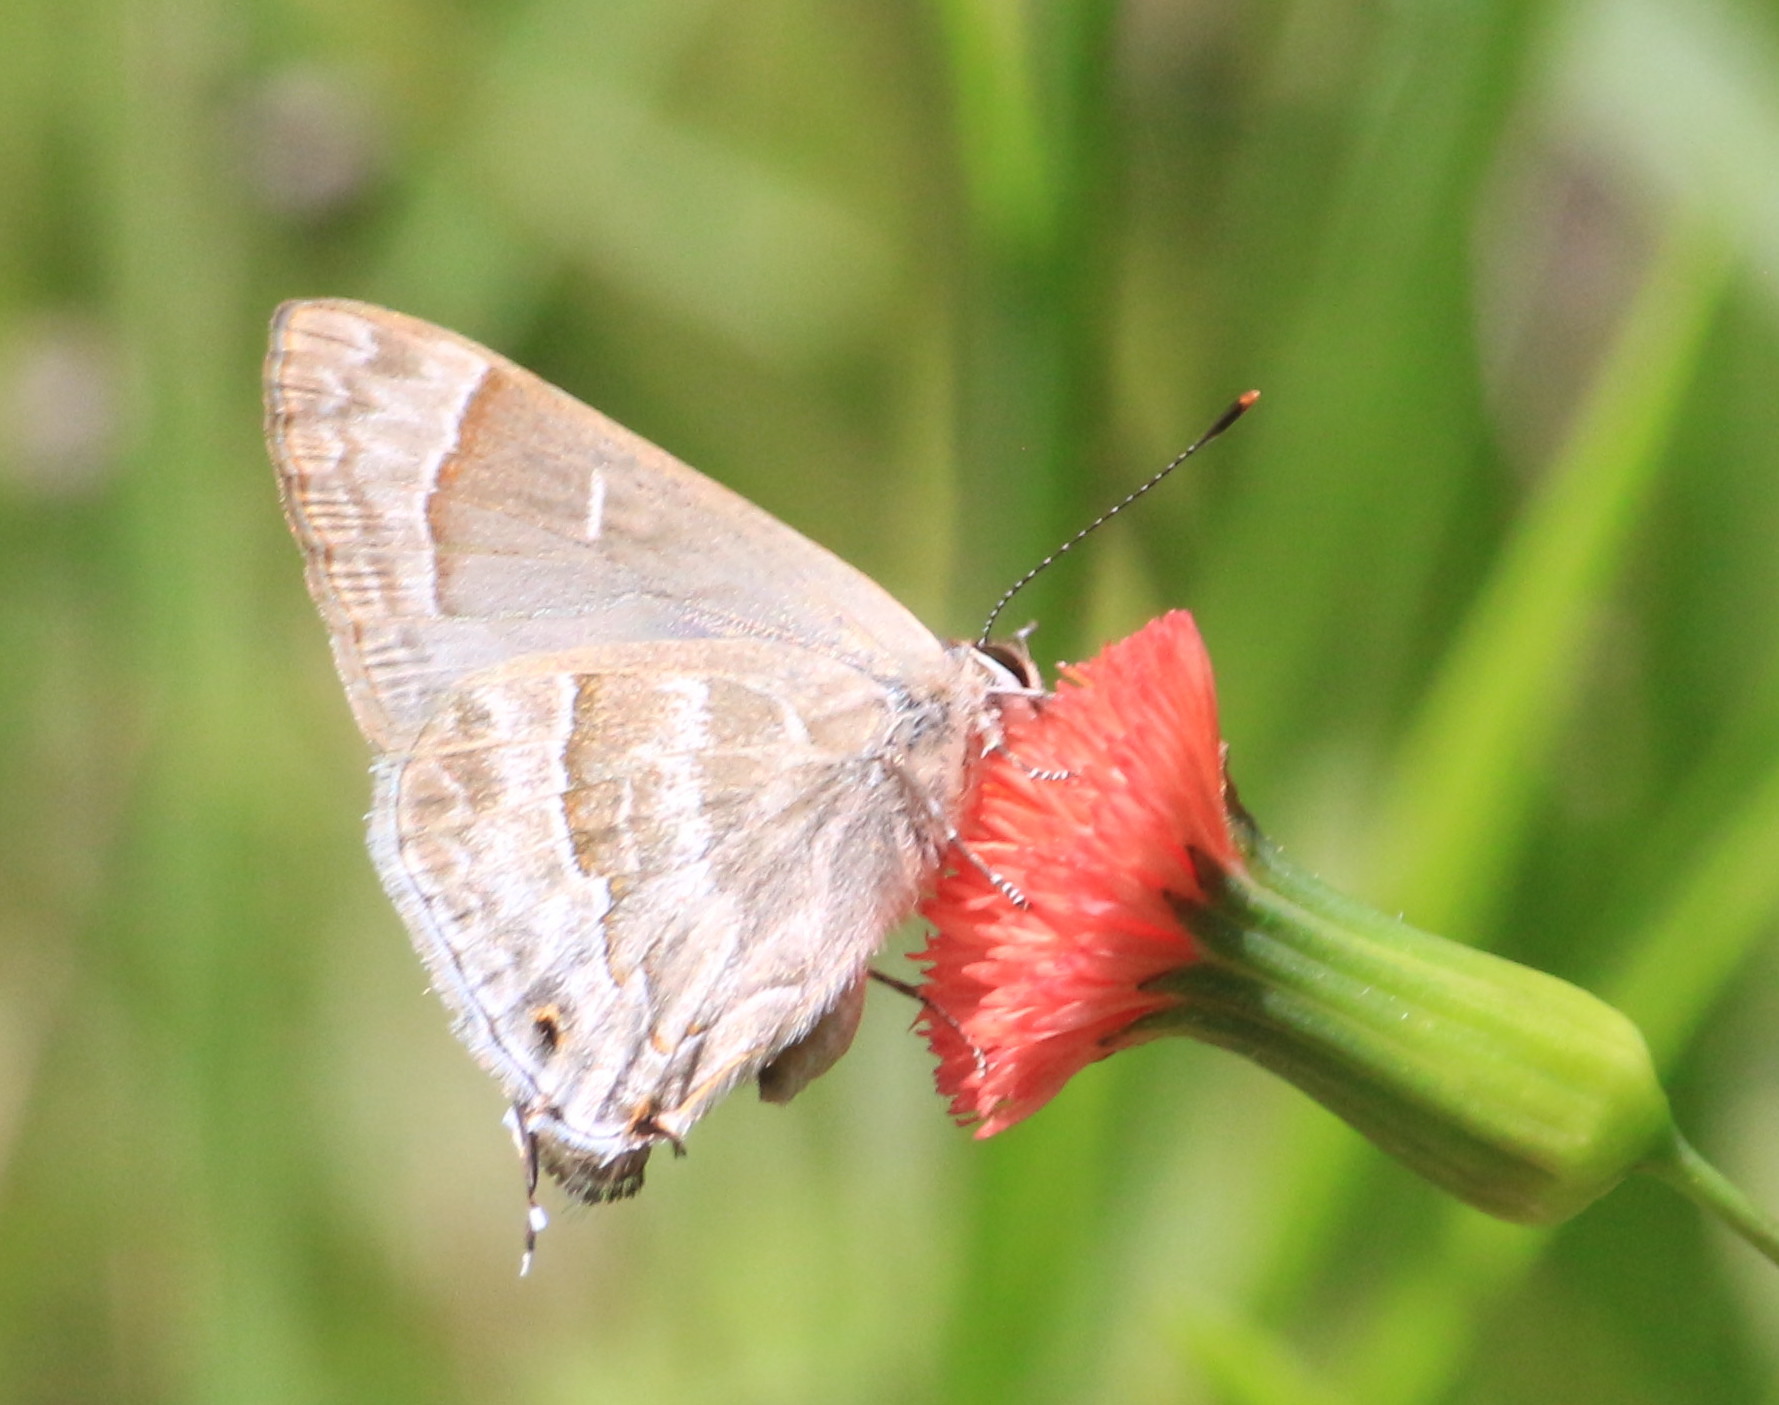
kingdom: Animalia
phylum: Arthropoda
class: Insecta
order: Lepidoptera
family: Lycaenidae
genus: Thecla
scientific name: Thecla yojoa
